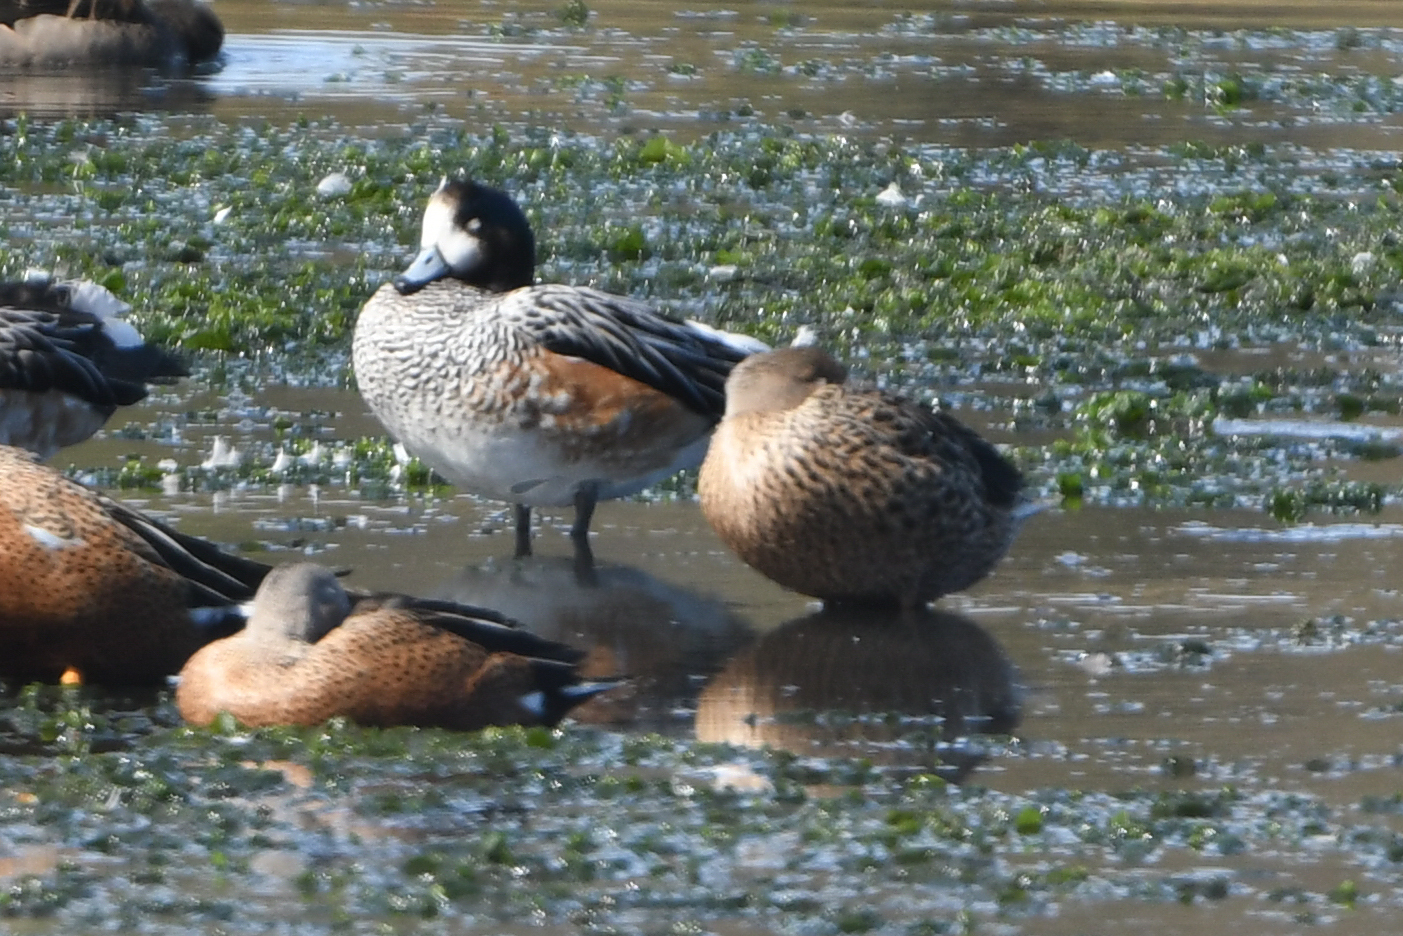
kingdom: Animalia
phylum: Chordata
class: Aves
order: Anseriformes
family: Anatidae
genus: Mareca
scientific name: Mareca sibilatrix
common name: Chiloe wigeon
